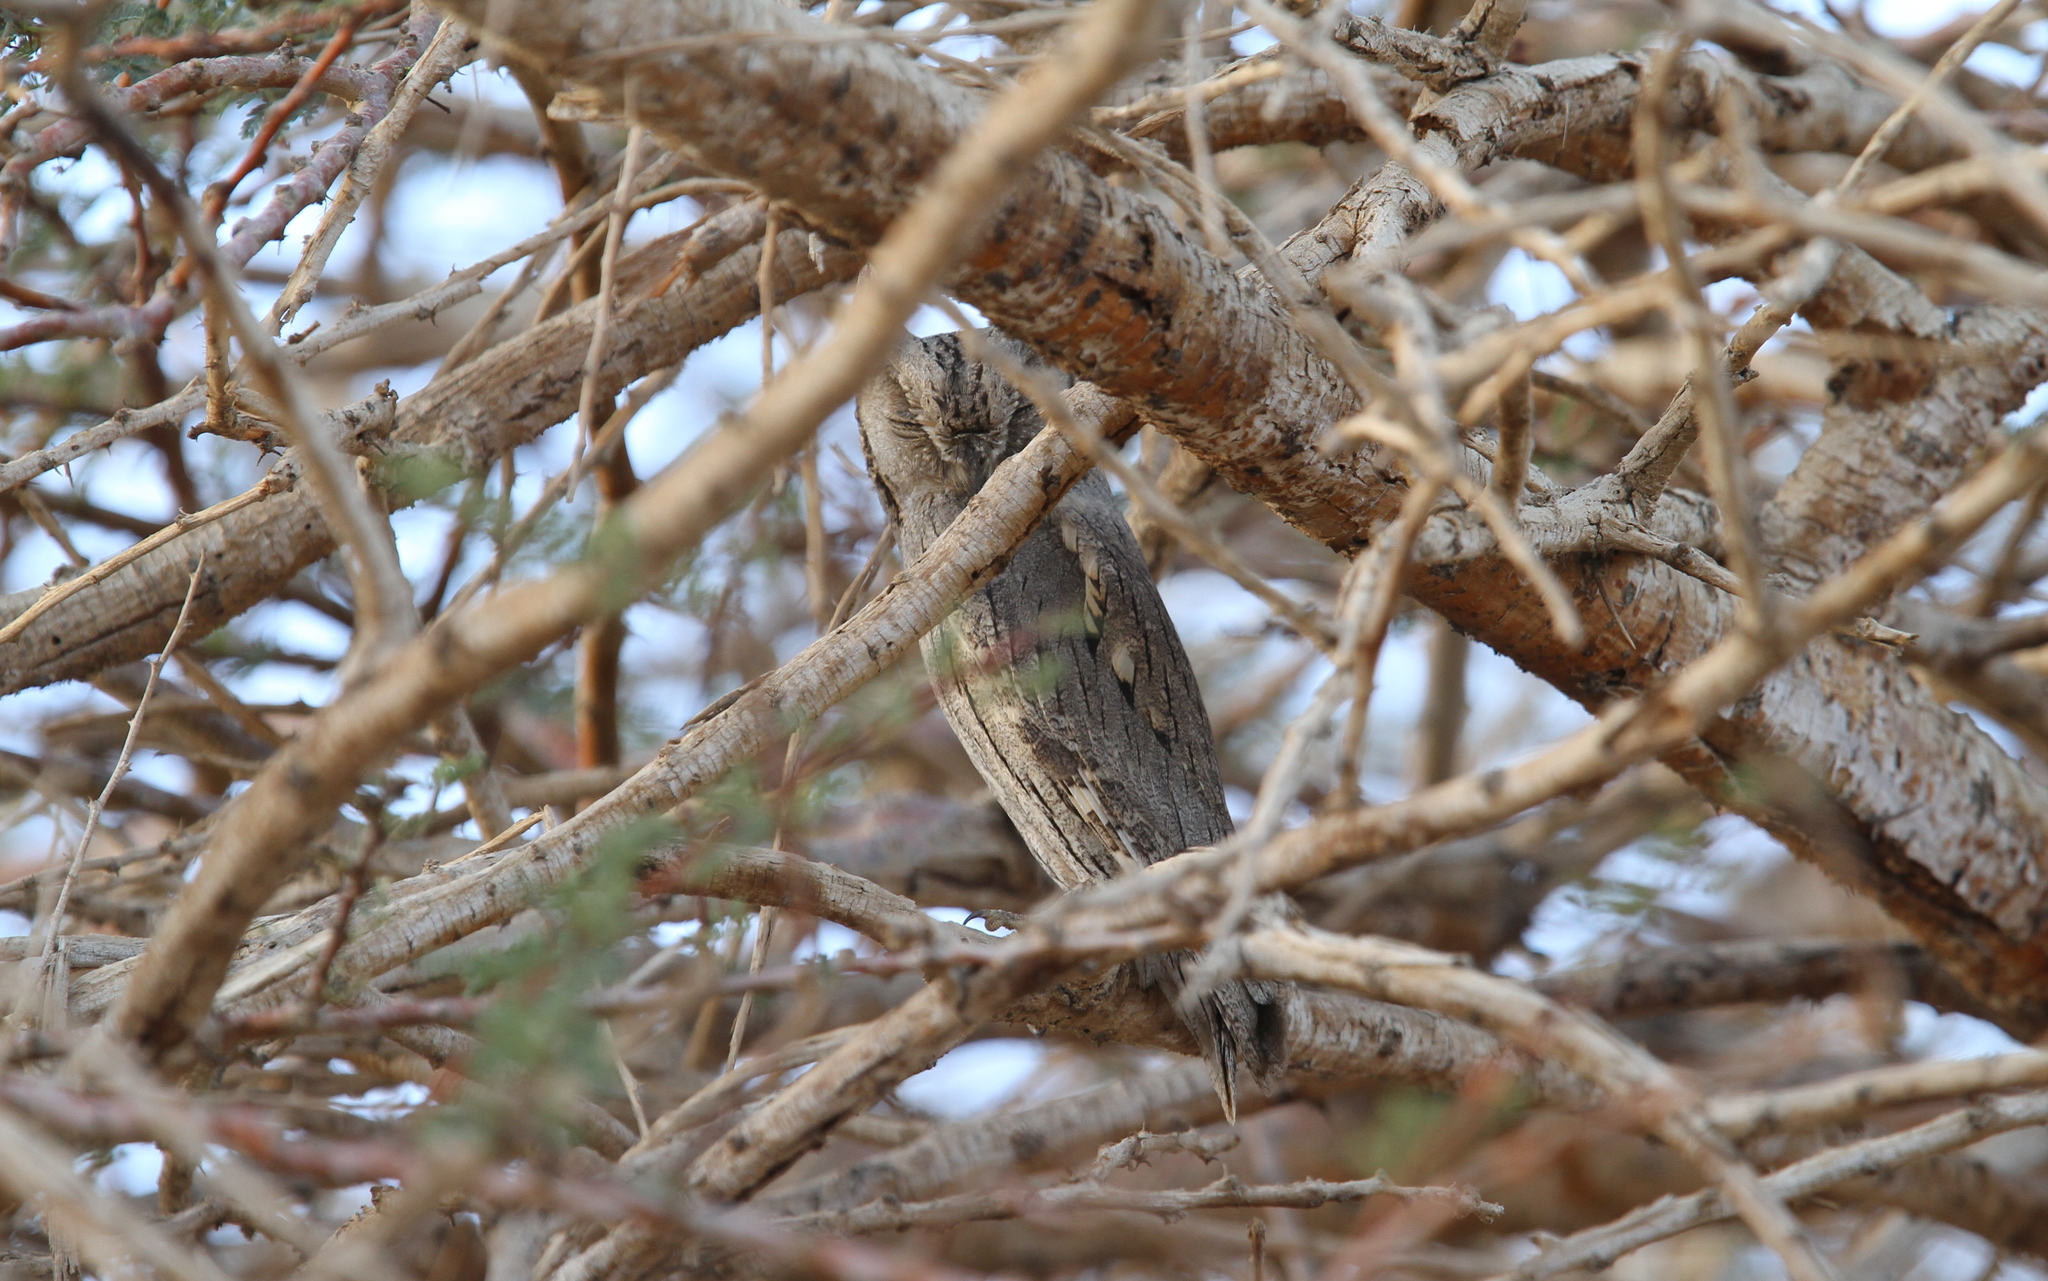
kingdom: Animalia
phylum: Chordata
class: Aves
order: Strigiformes
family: Strigidae
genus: Otus
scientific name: Otus brucei
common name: Pallid scops owl
